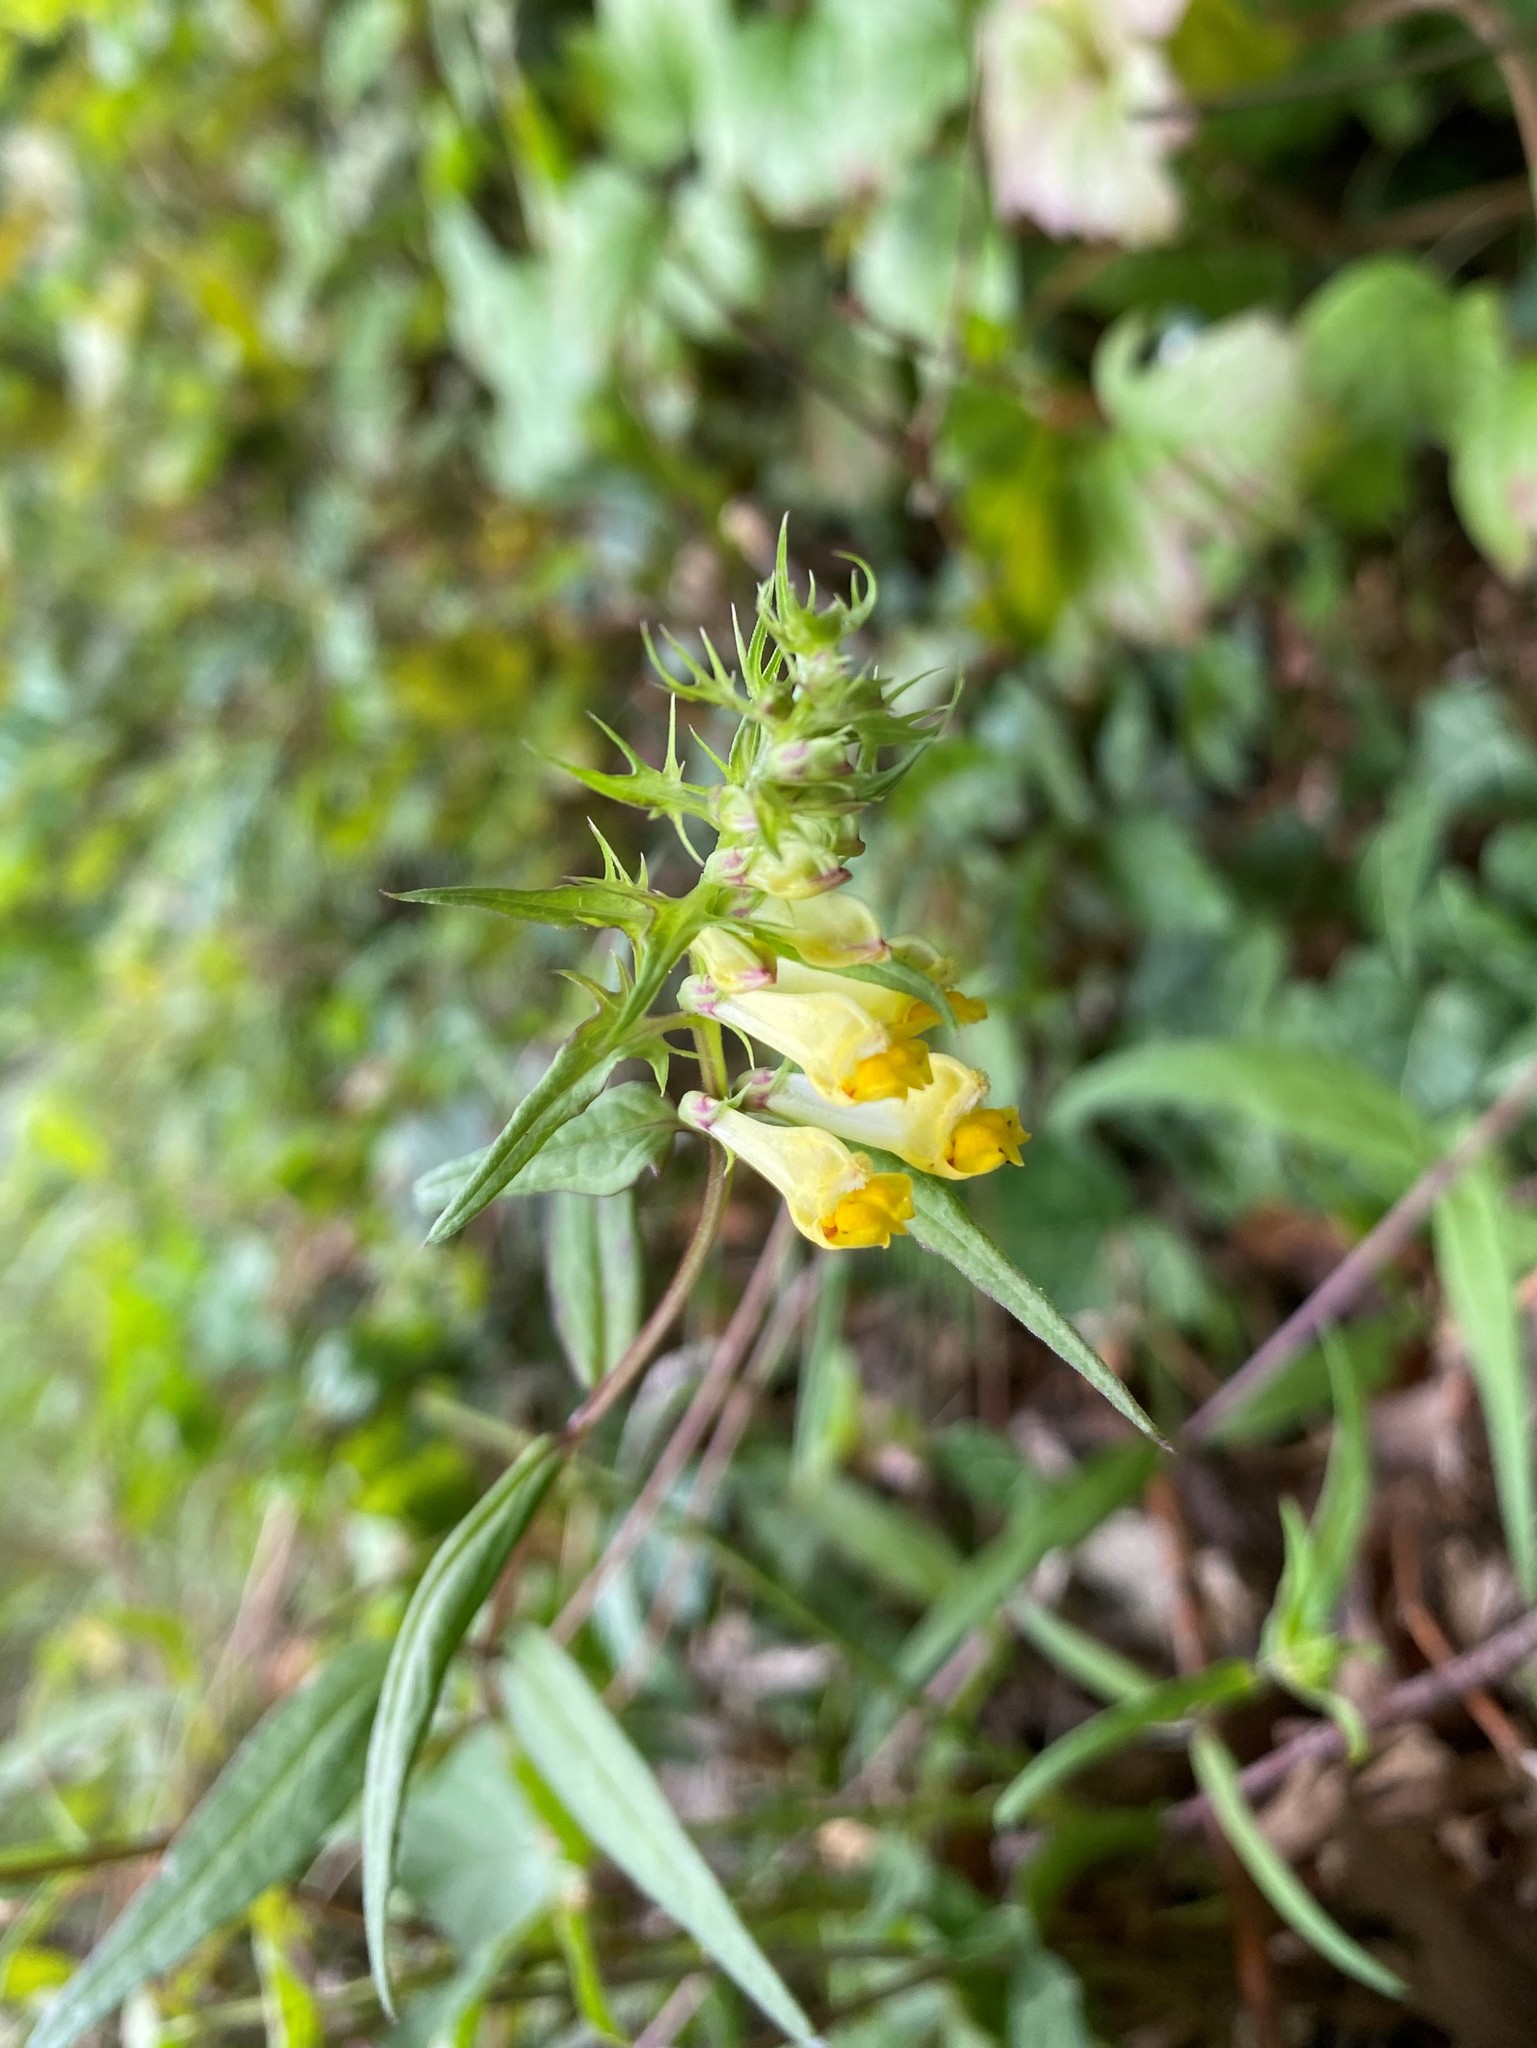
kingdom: Plantae
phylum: Tracheophyta
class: Magnoliopsida
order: Lamiales
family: Orobanchaceae
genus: Melampyrum
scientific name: Melampyrum pratense
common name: Common cow-wheat
